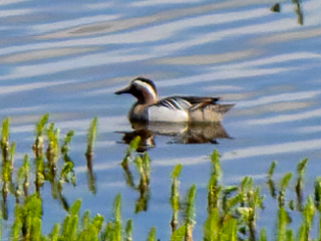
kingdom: Animalia
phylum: Chordata
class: Aves
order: Anseriformes
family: Anatidae
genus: Spatula
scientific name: Spatula querquedula
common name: Garganey
